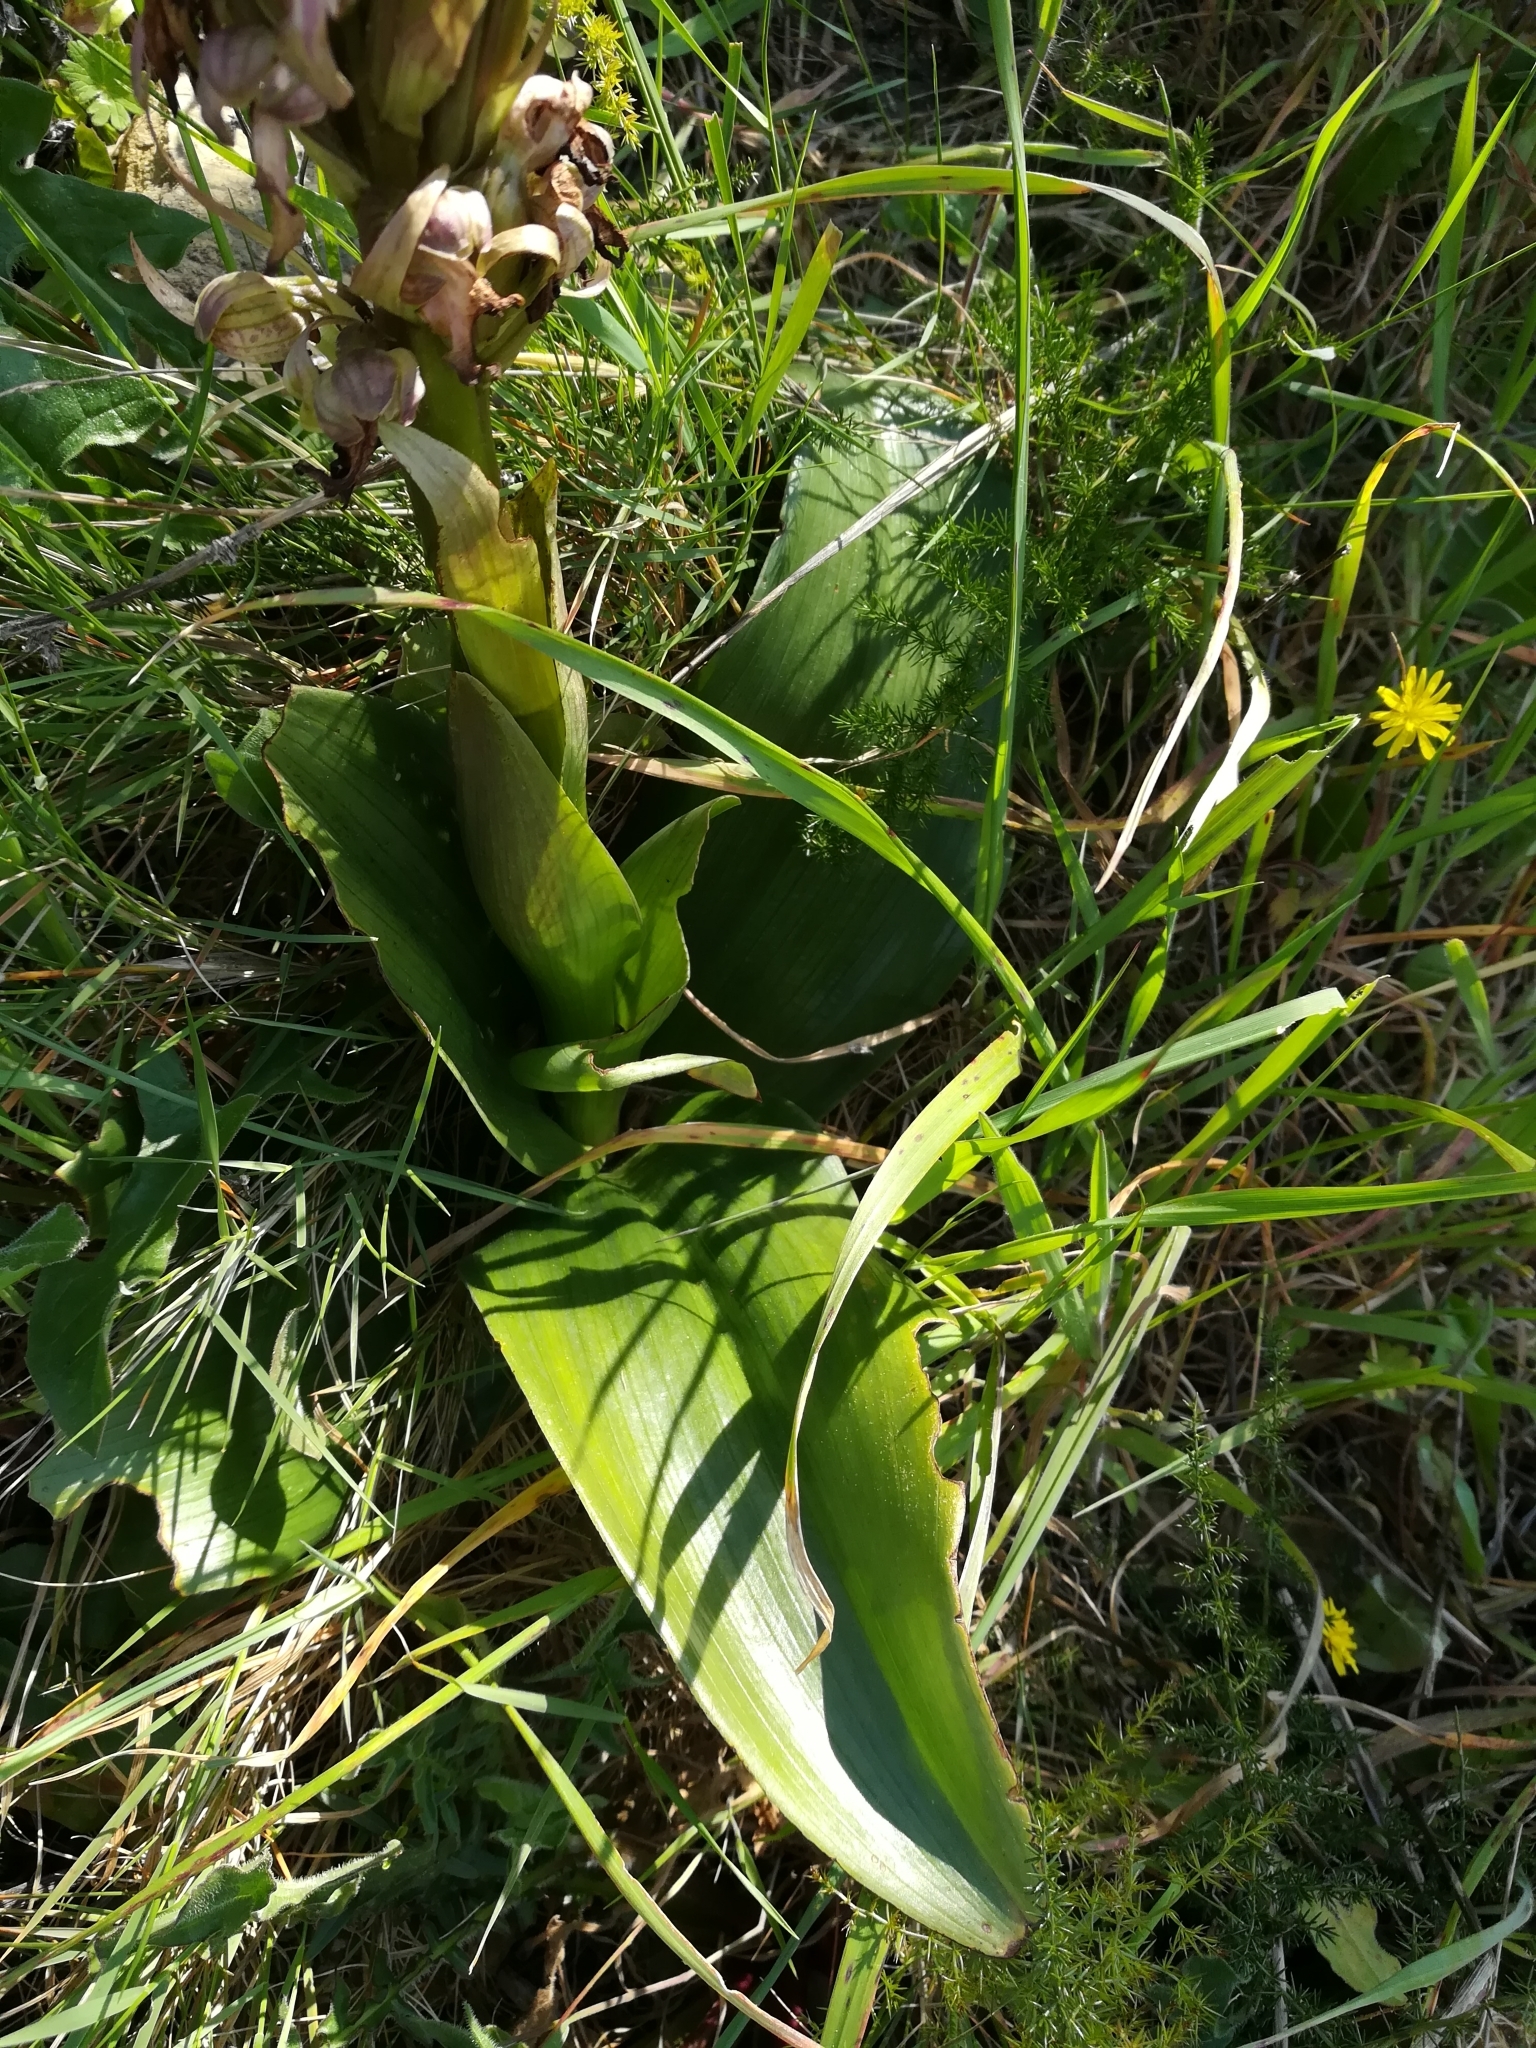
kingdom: Plantae
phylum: Tracheophyta
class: Liliopsida
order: Asparagales
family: Orchidaceae
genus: Himantoglossum
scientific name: Himantoglossum robertianum
